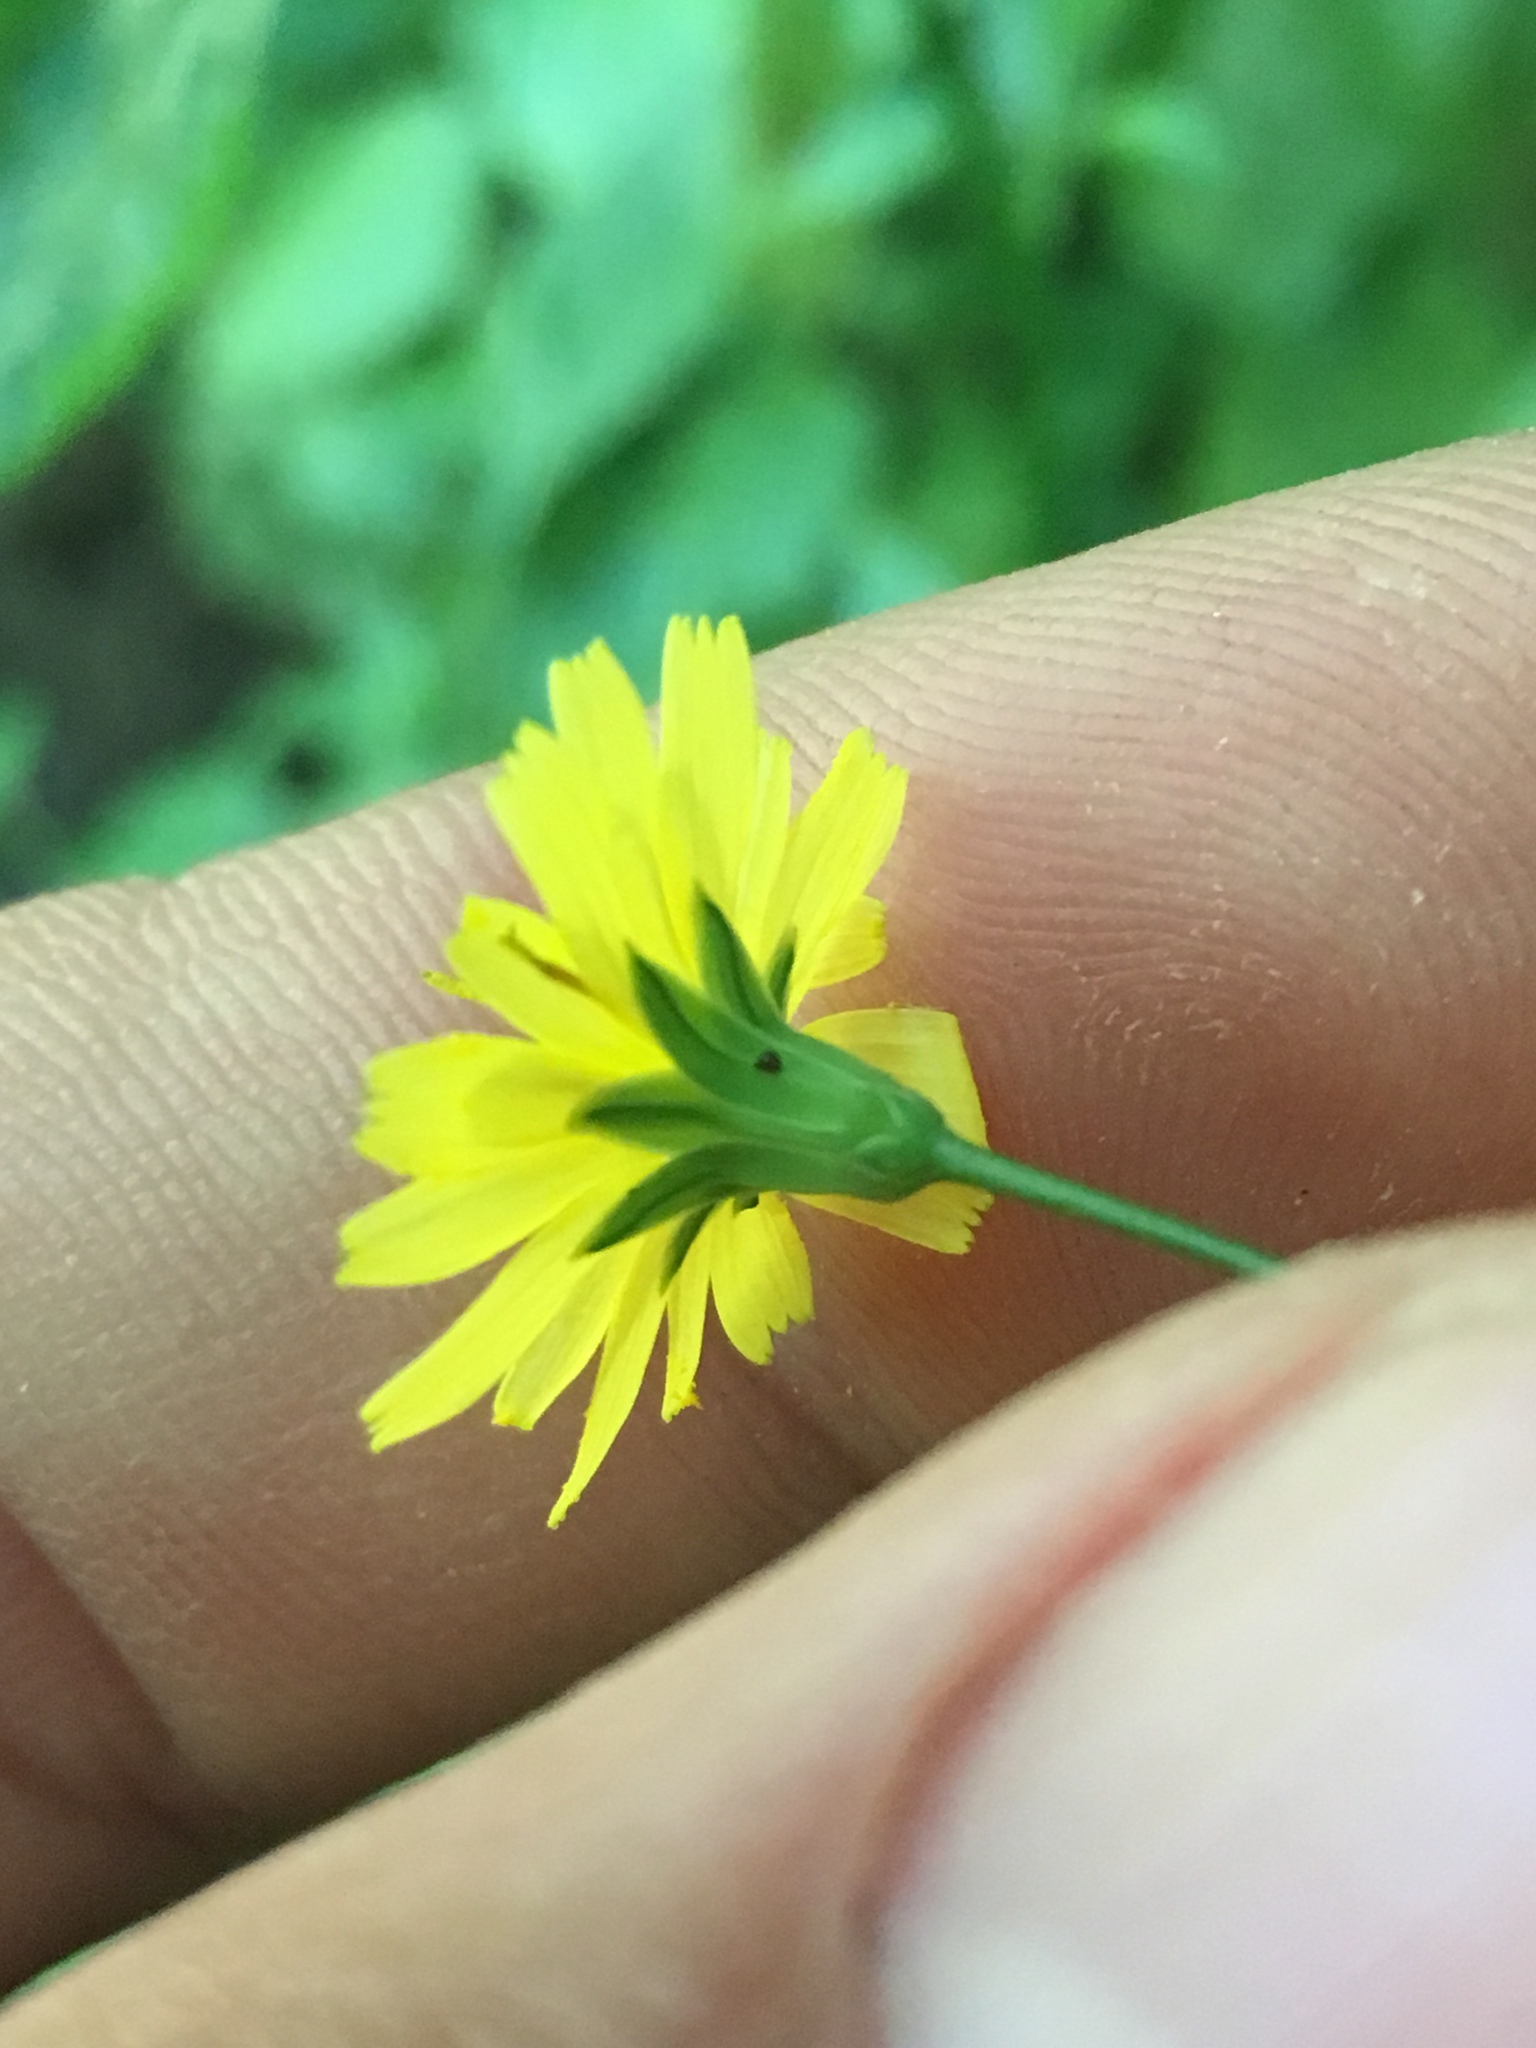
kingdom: Plantae
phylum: Tracheophyta
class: Magnoliopsida
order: Asterales
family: Asteraceae
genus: Lapsana
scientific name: Lapsana communis
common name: Nipplewort
